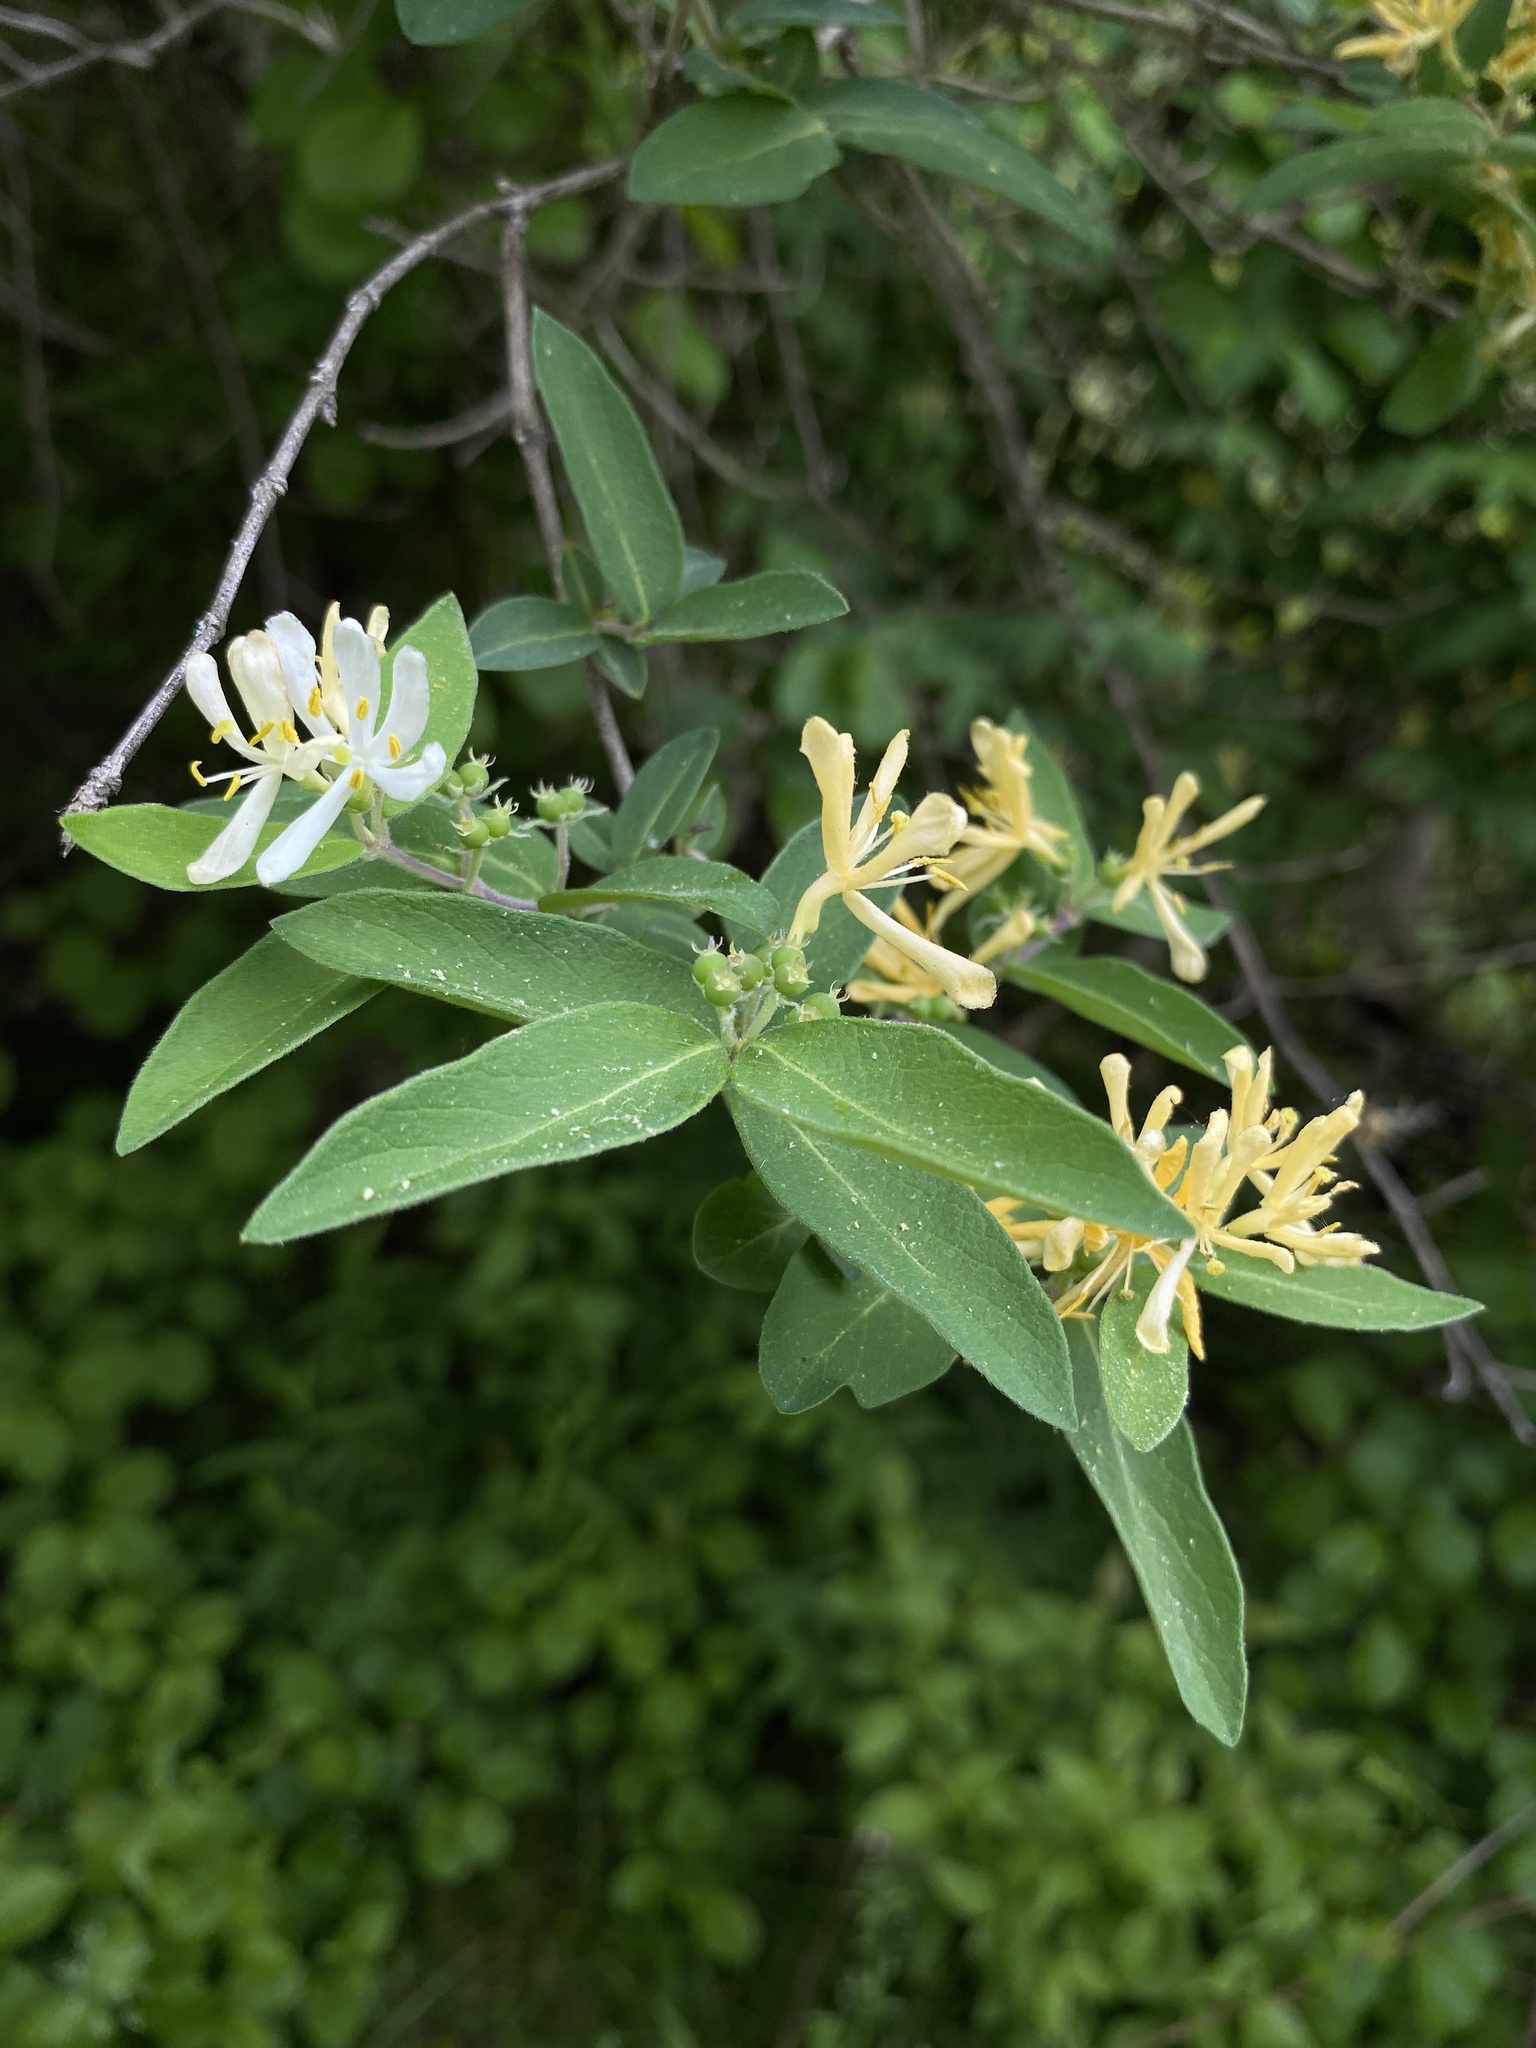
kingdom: Plantae
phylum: Tracheophyta
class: Magnoliopsida
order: Dipsacales
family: Caprifoliaceae
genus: Lonicera
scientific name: Lonicera morrowii
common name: Morrow's honeysuckle
